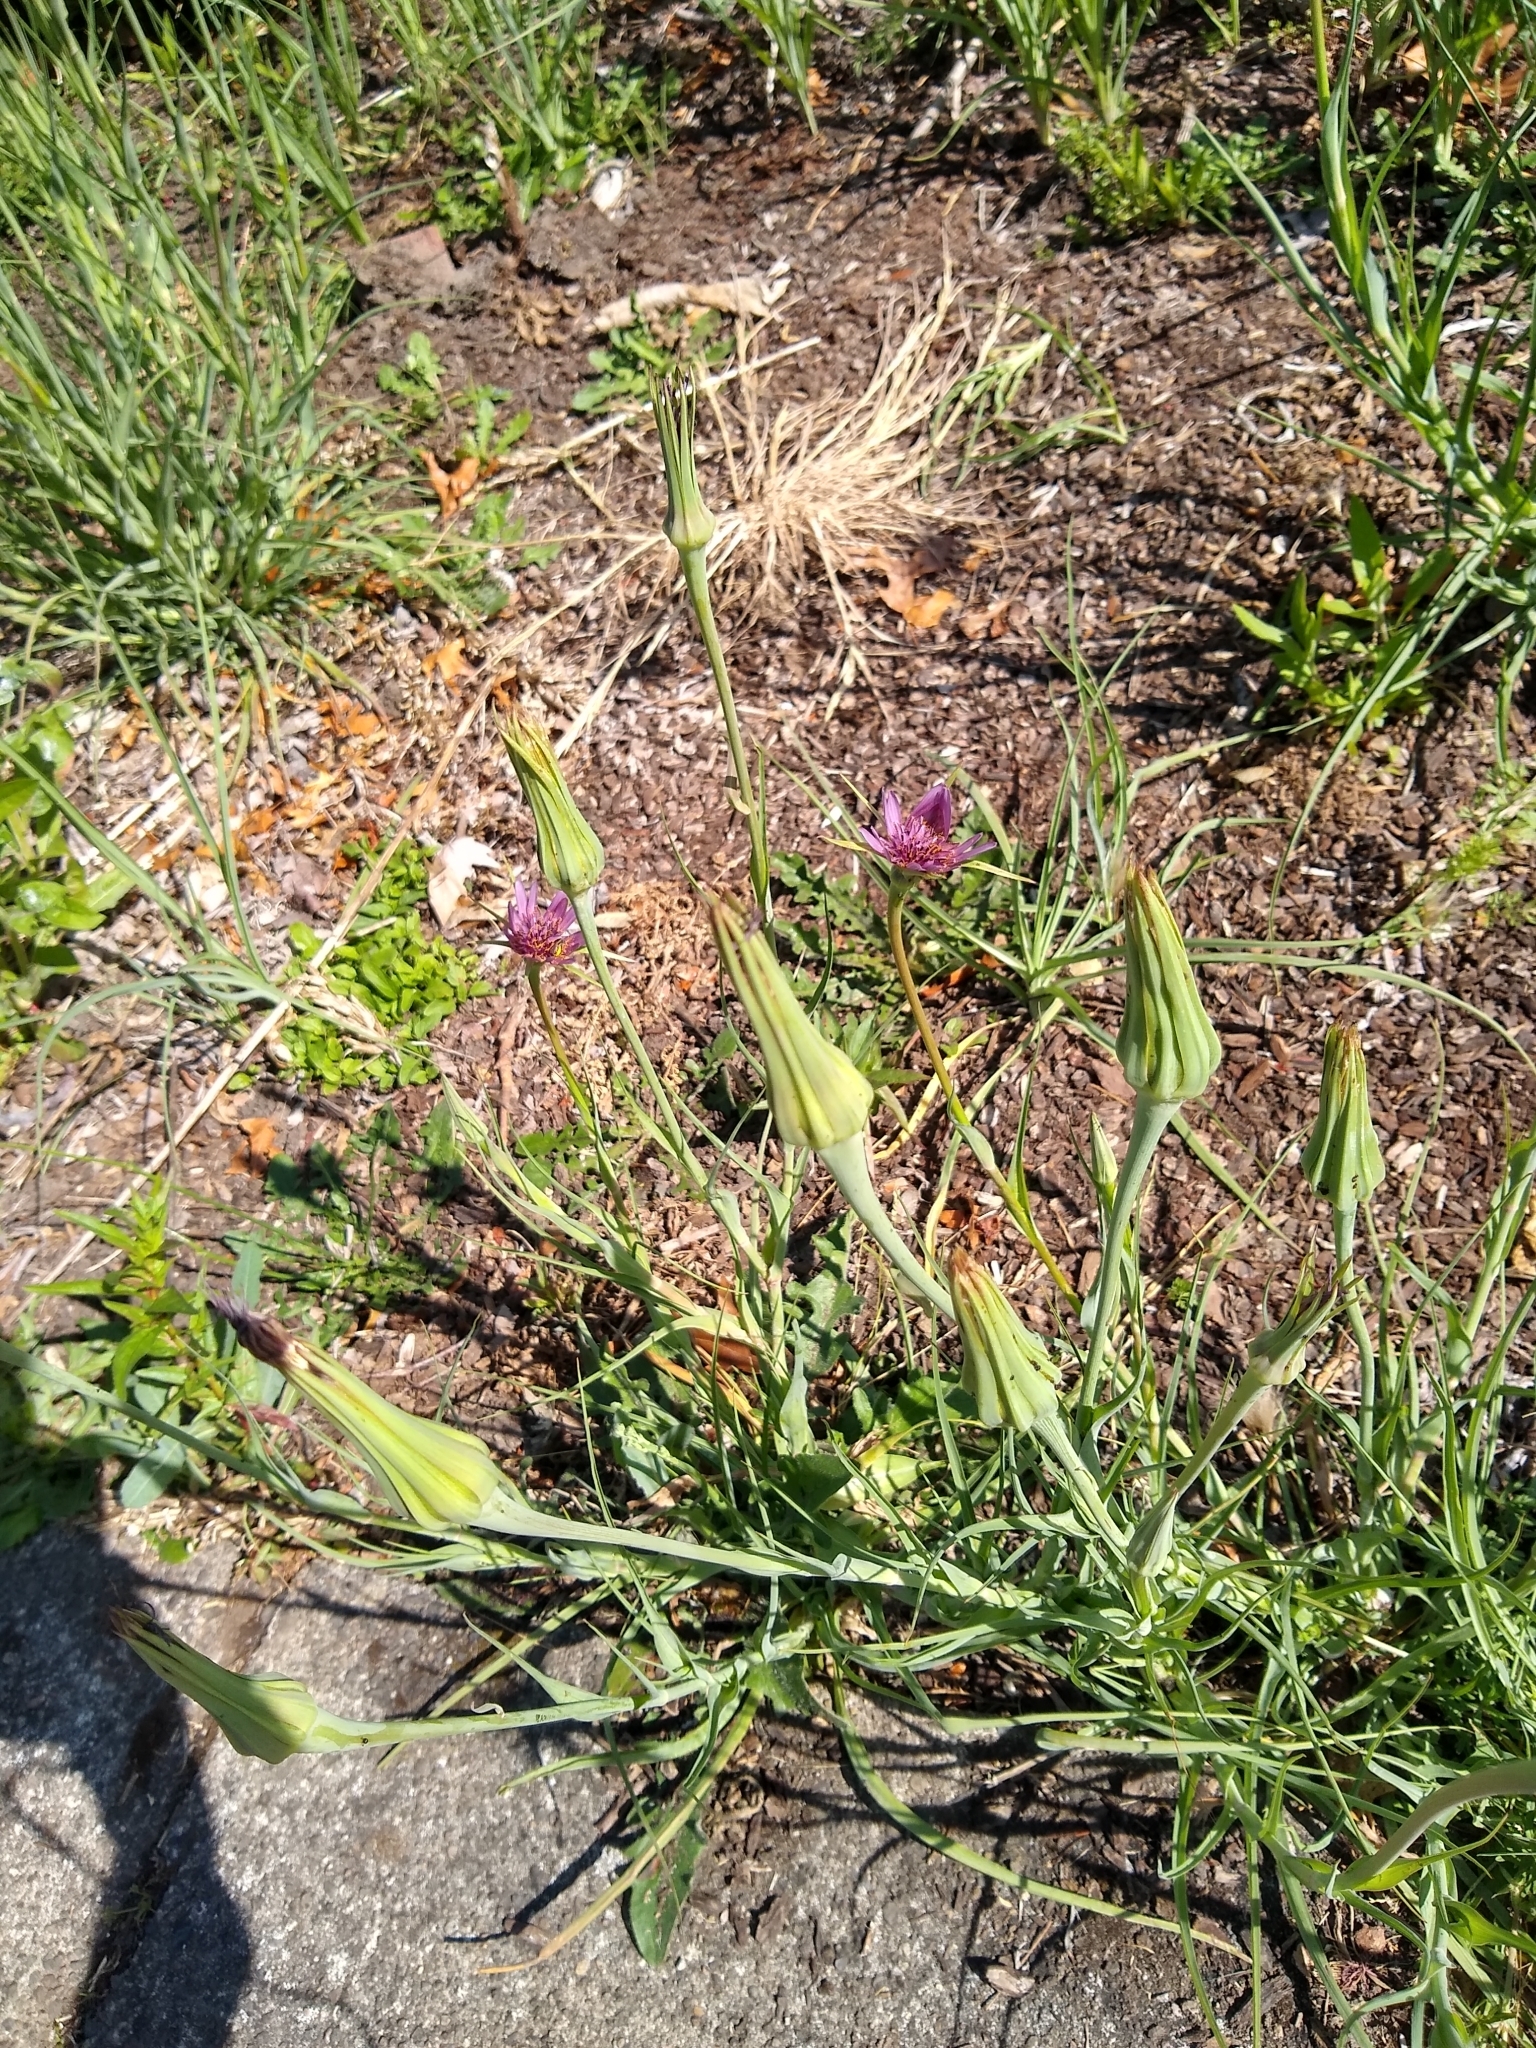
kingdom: Plantae
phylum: Tracheophyta
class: Magnoliopsida
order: Asterales
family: Asteraceae
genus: Tragopogon
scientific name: Tragopogon porrifolius
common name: Salsify
